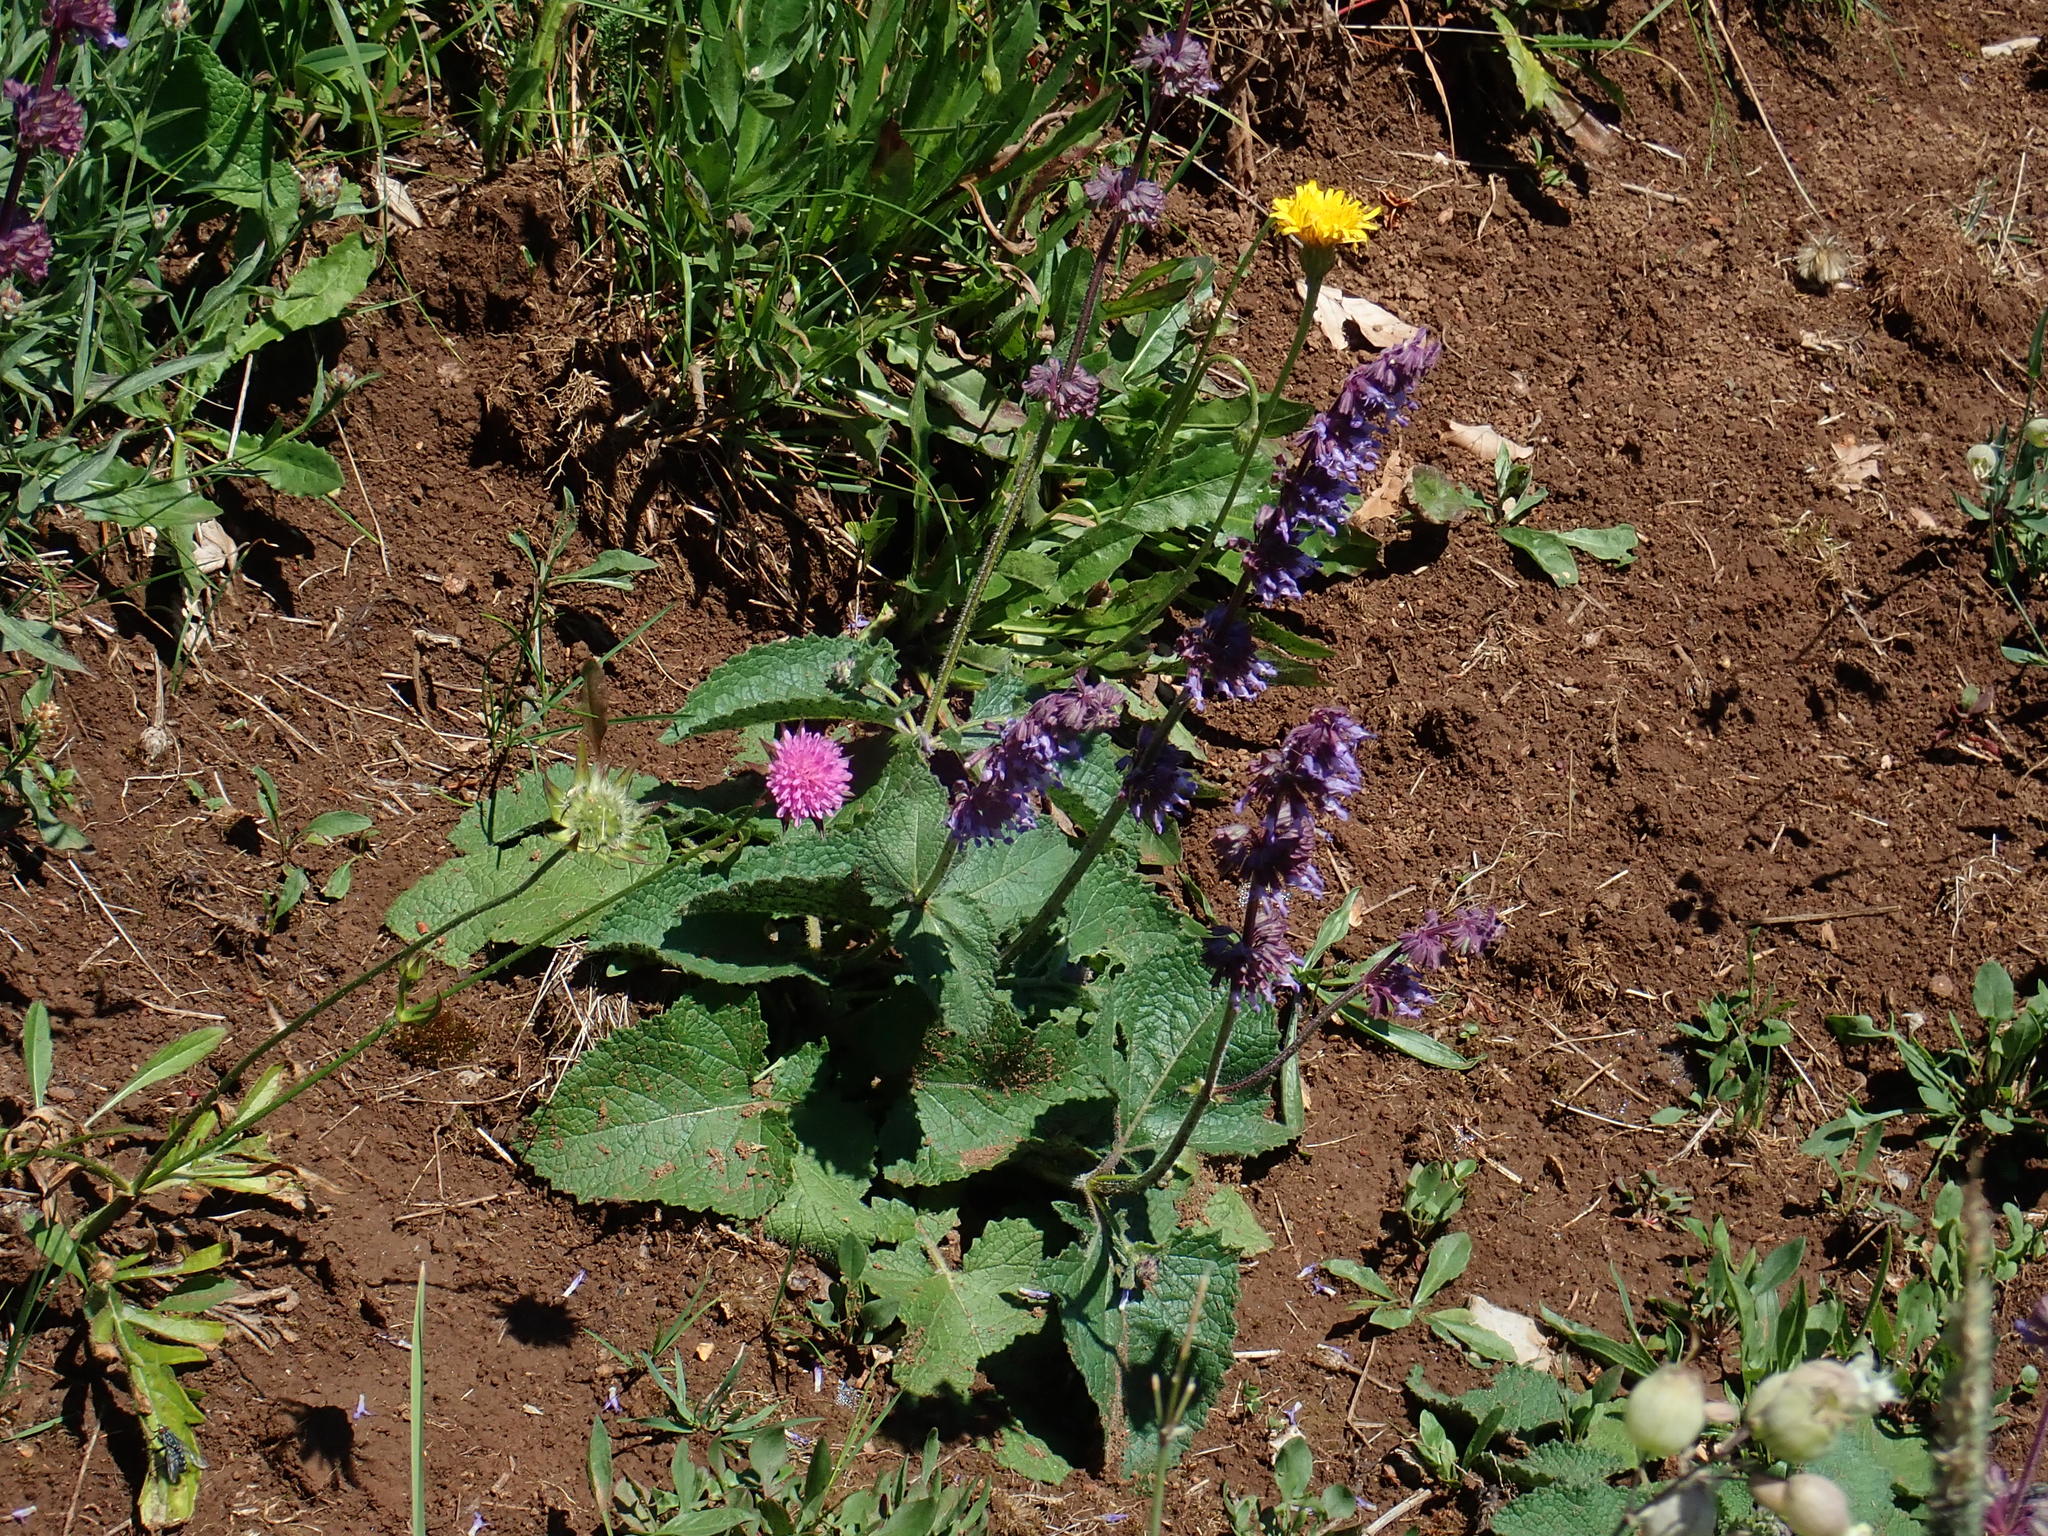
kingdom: Plantae
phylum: Tracheophyta
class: Magnoliopsida
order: Lamiales
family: Lamiaceae
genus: Salvia
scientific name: Salvia verticillata
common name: Whorled clary
